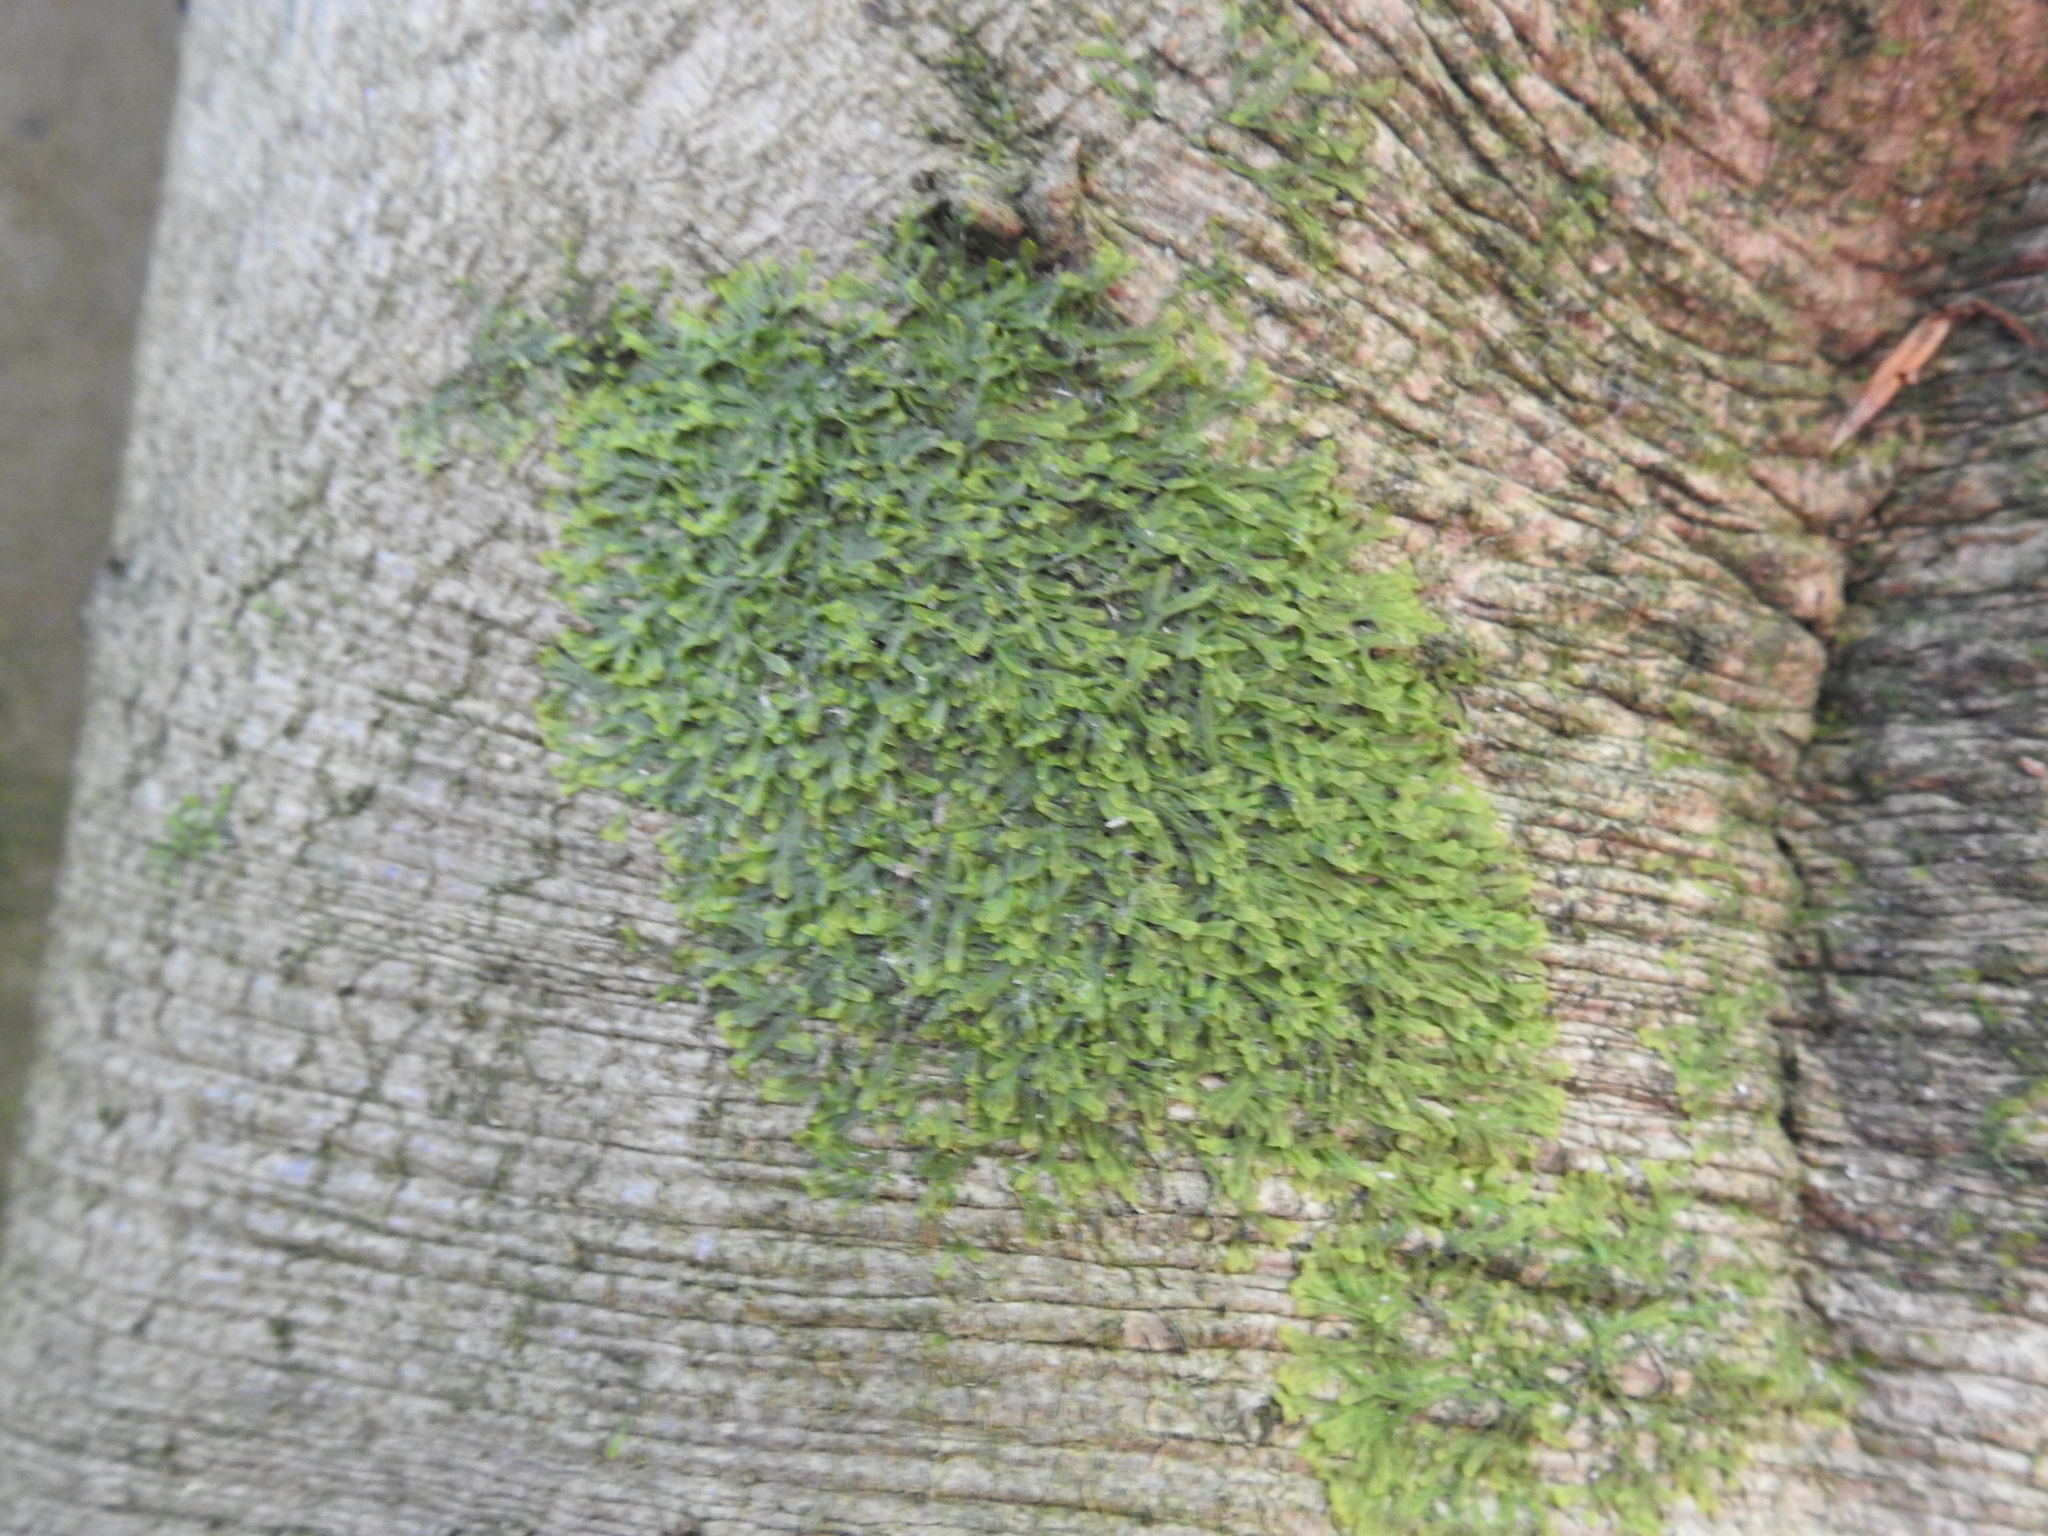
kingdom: Plantae
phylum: Marchantiophyta
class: Jungermanniopsida
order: Metzgeriales
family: Metzgeriaceae
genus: Metzgeria
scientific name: Metzgeria furcata
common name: Forked veilwort
